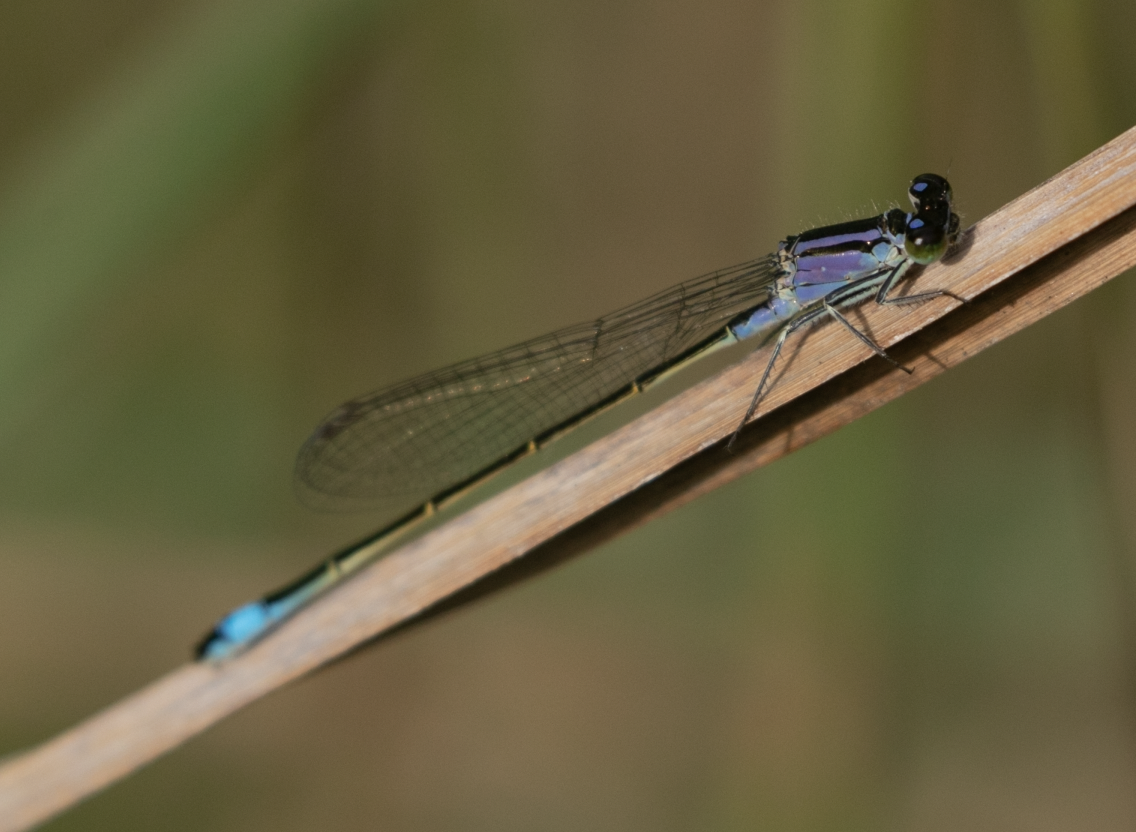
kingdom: Animalia
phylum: Arthropoda
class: Insecta
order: Odonata
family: Coenagrionidae
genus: Ischnura
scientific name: Ischnura elegans
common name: Blue-tailed damselfly
